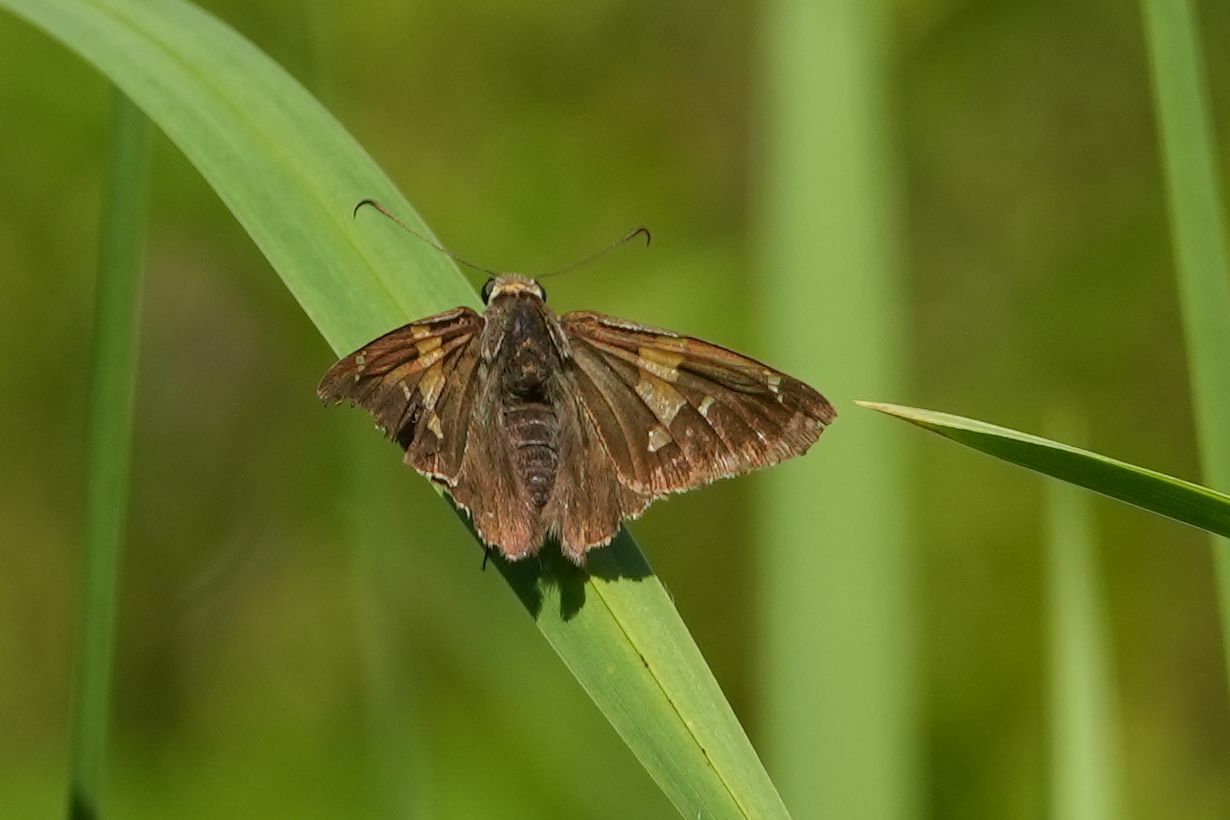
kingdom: Animalia
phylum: Arthropoda
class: Insecta
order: Lepidoptera
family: Hesperiidae
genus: Epargyreus
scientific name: Epargyreus clarus
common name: Silver-spotted skipper
